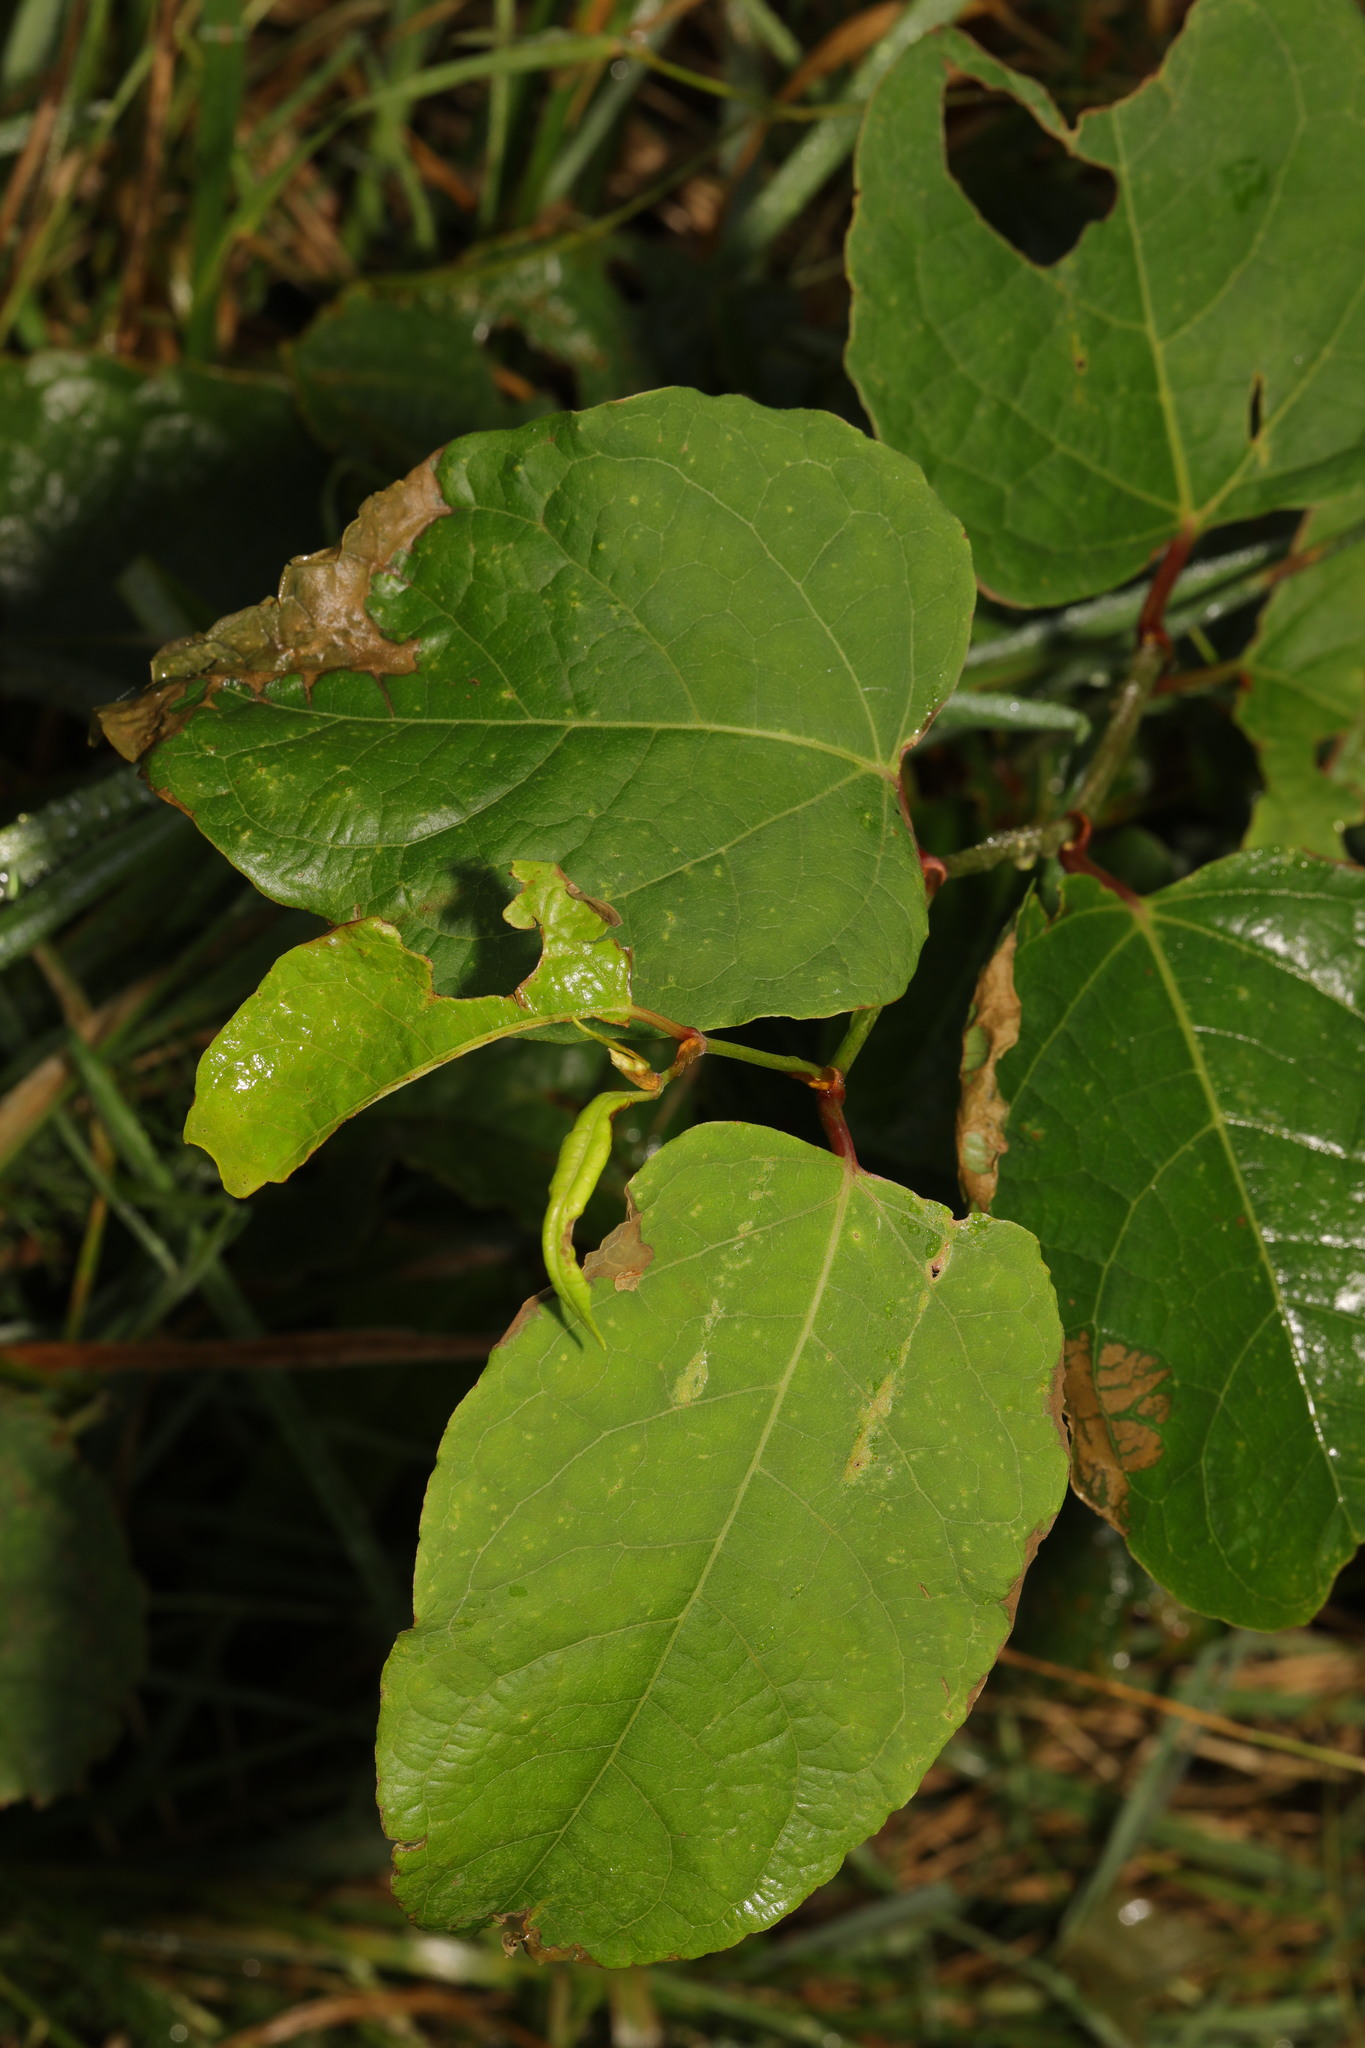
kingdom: Plantae
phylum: Tracheophyta
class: Magnoliopsida
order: Caryophyllales
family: Polygonaceae
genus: Reynoutria
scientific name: Reynoutria bohemica
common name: Bohemian knotweed
